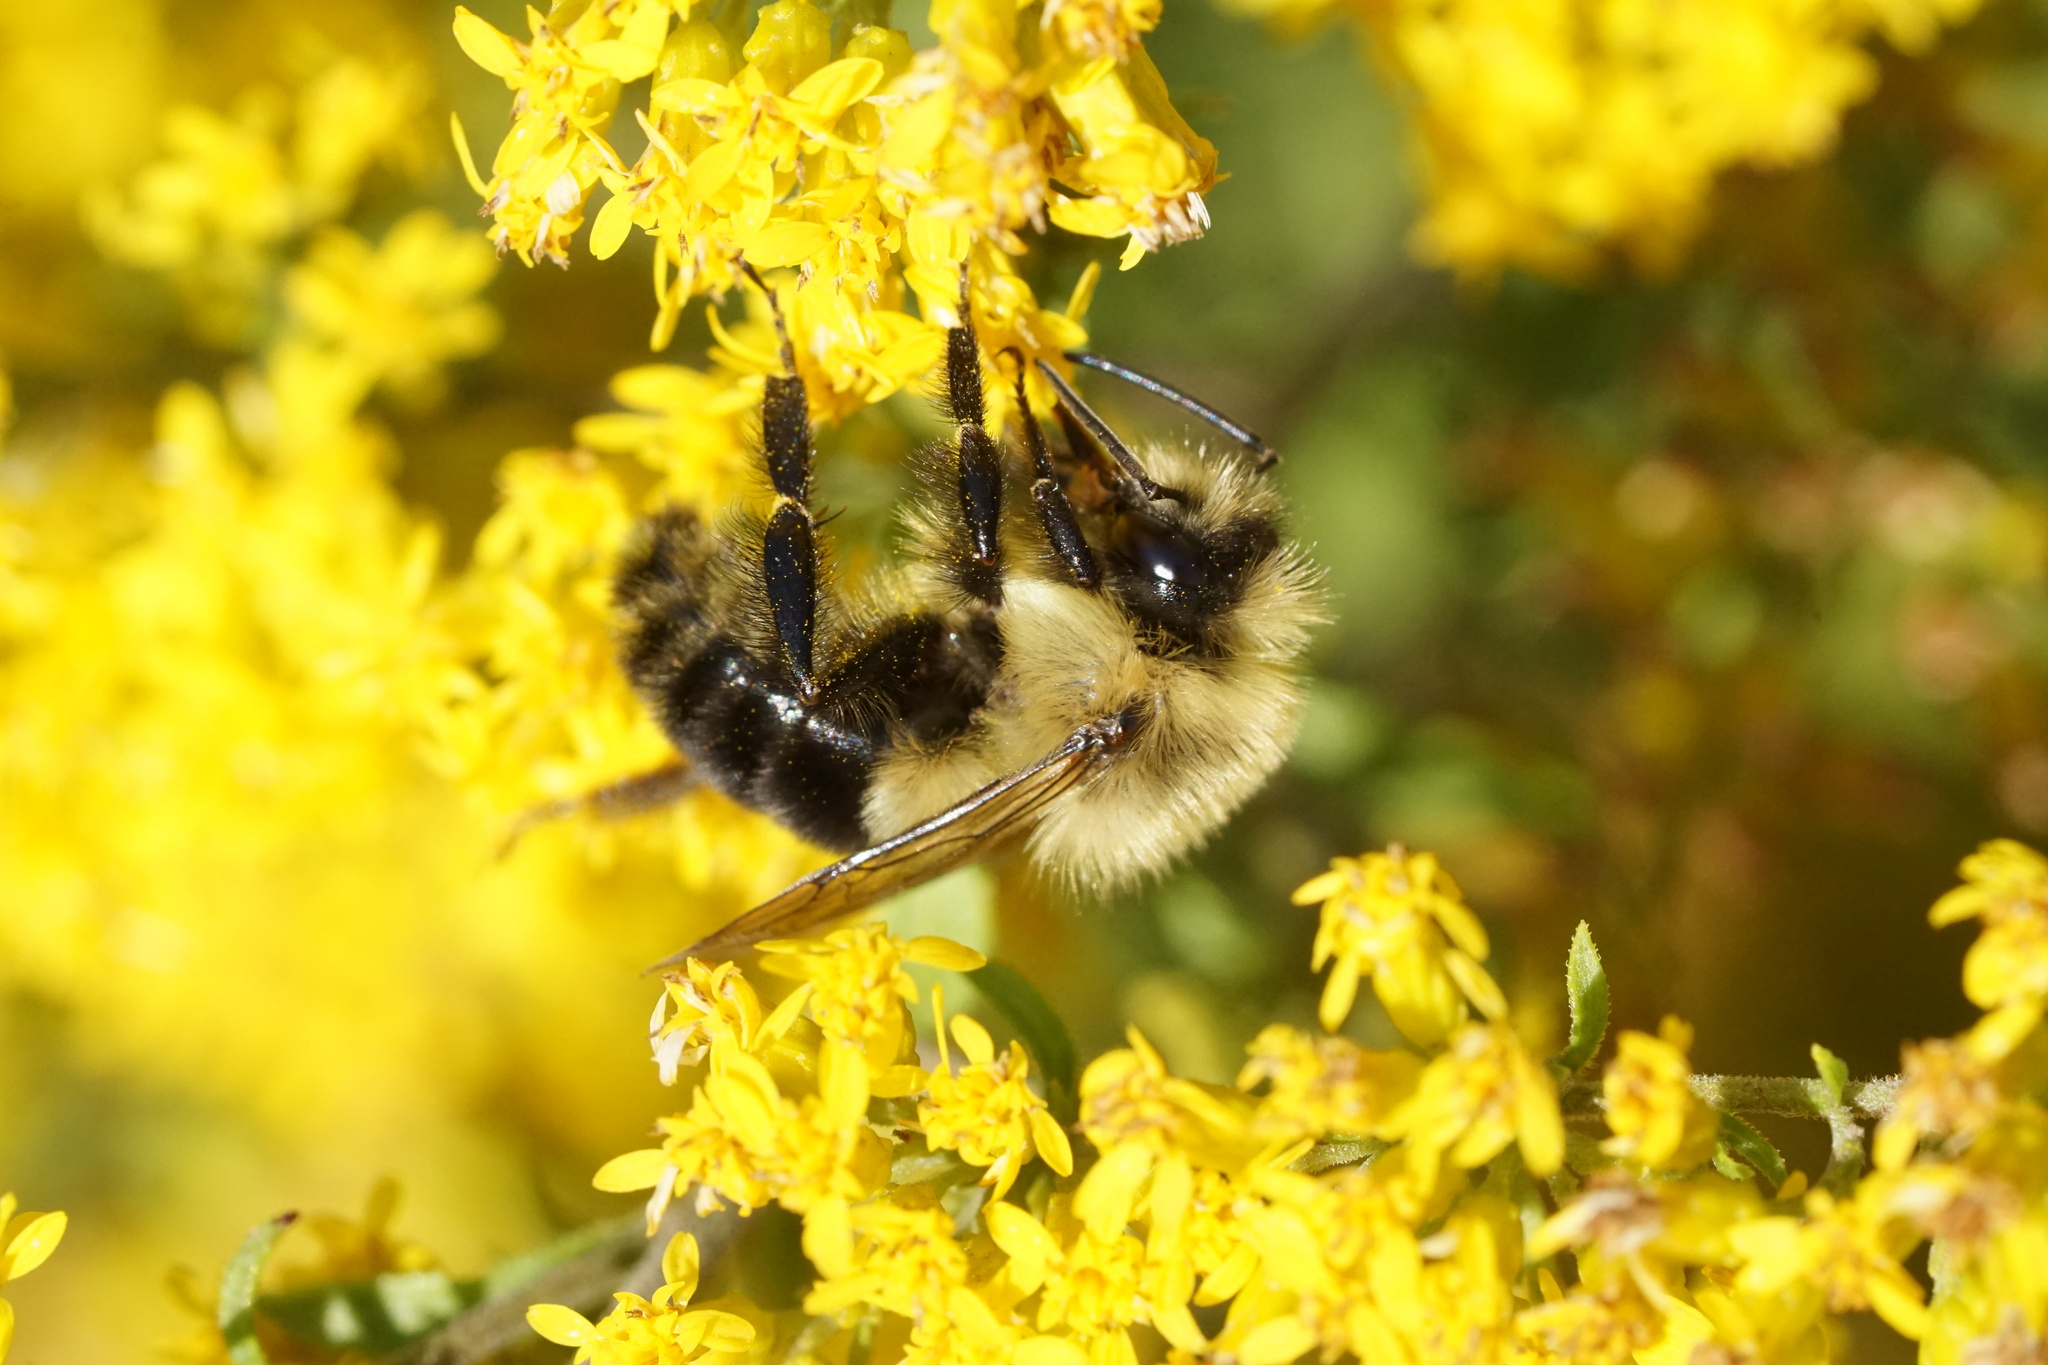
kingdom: Animalia
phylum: Arthropoda
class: Insecta
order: Hymenoptera
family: Apidae
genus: Bombus
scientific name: Bombus impatiens
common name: Common eastern bumble bee
